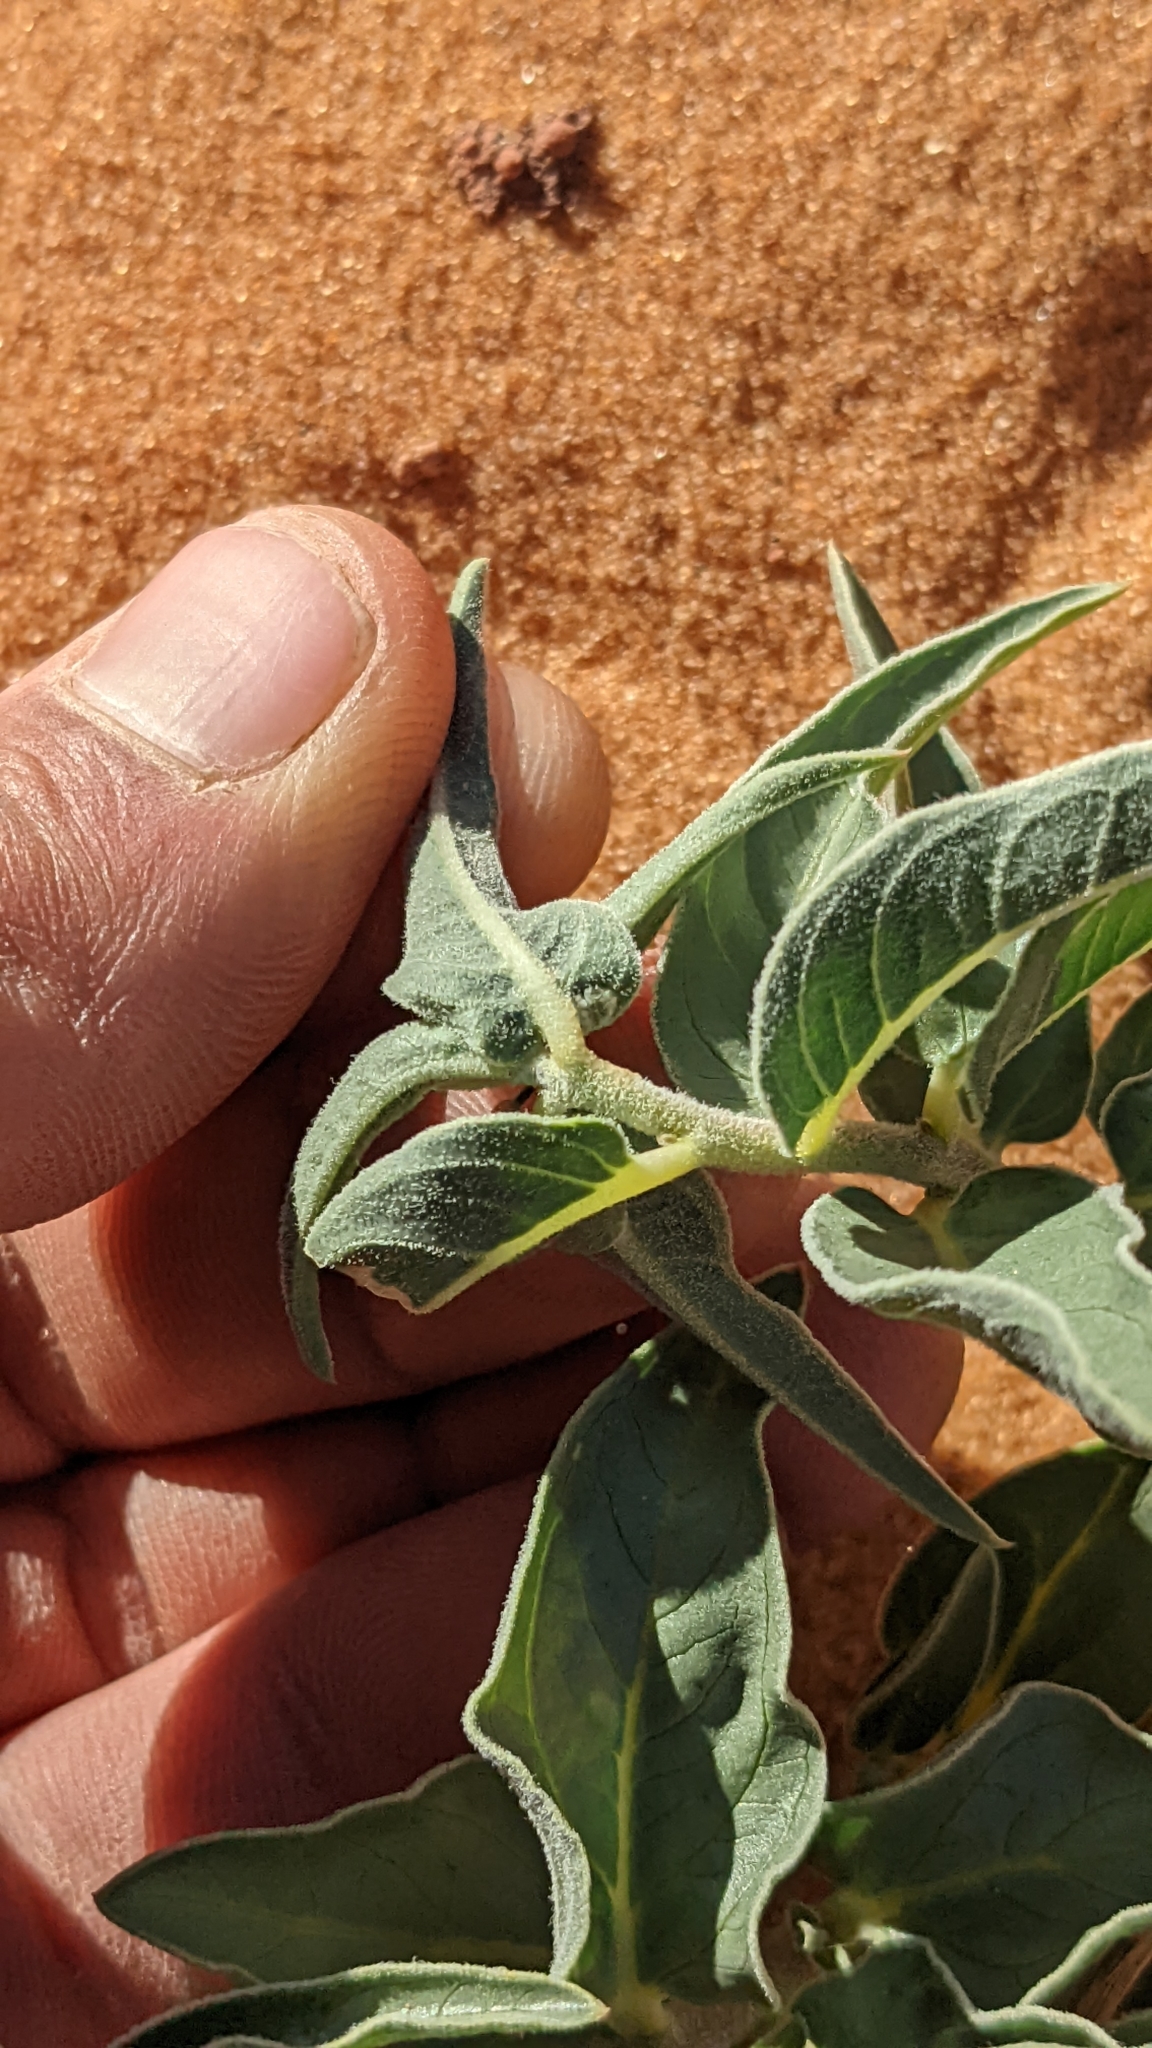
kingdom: Plantae
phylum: Tracheophyta
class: Magnoliopsida
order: Gentianales
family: Apocynaceae
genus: Asclepias
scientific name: Asclepias involucrata
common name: Dwarf milkweed
